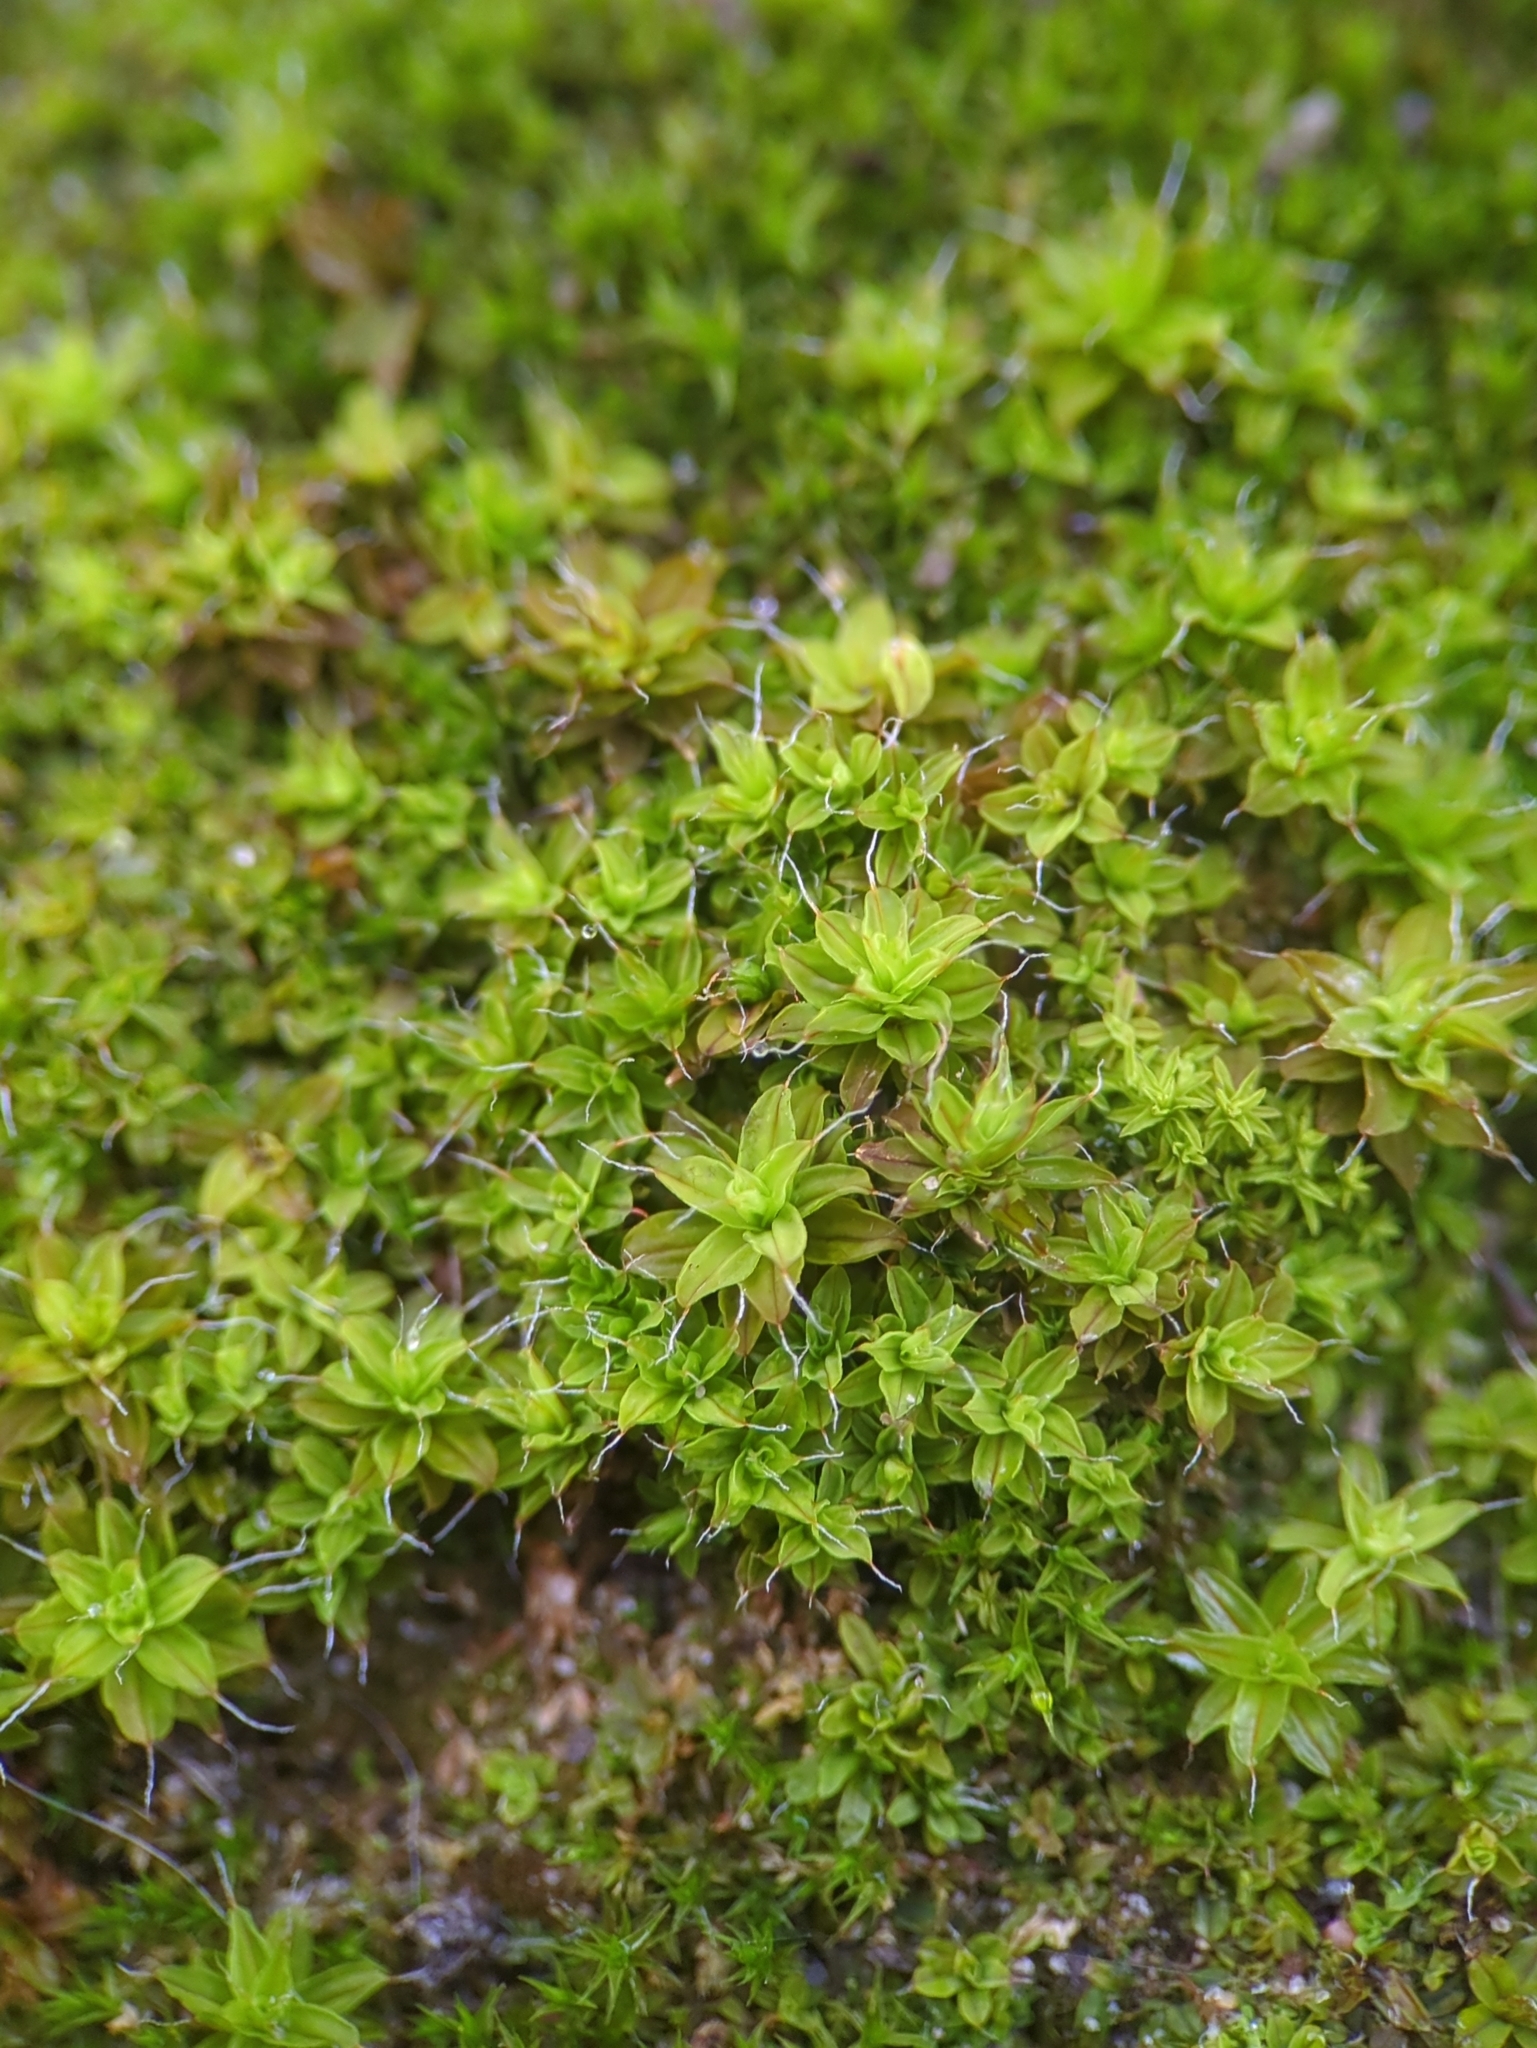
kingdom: Plantae
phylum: Bryophyta
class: Bryopsida
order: Pottiales
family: Pottiaceae
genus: Syntrichia
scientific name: Syntrichia ruralis
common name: Sidewalk screw moss
